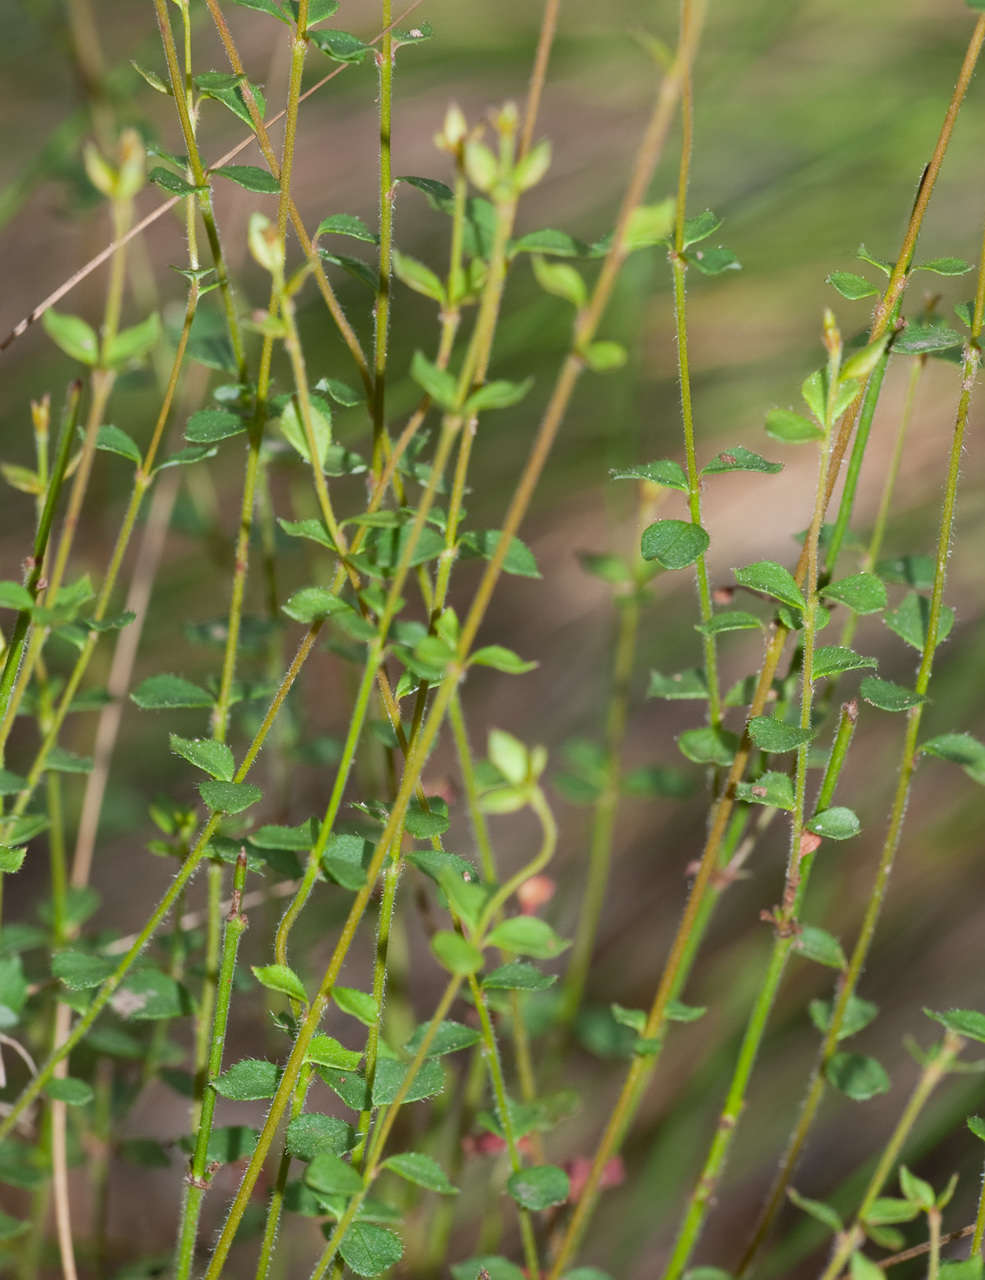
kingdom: Plantae
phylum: Tracheophyta
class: Magnoliopsida
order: Oxalidales
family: Elaeocarpaceae
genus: Tetratheca
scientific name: Tetratheca ciliata
